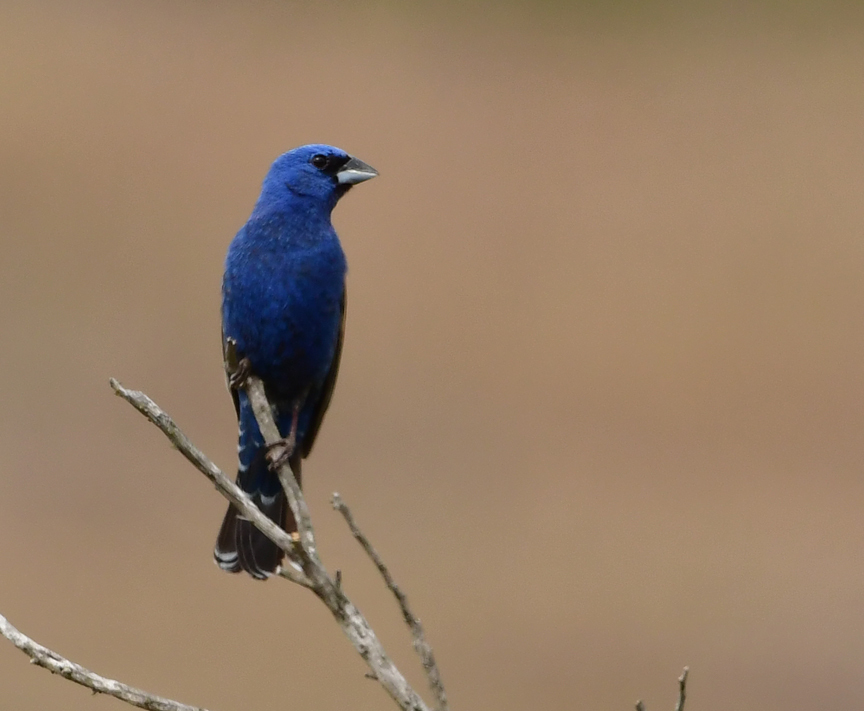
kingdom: Animalia
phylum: Chordata
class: Aves
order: Passeriformes
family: Cardinalidae
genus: Passerina
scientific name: Passerina caerulea
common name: Blue grosbeak
